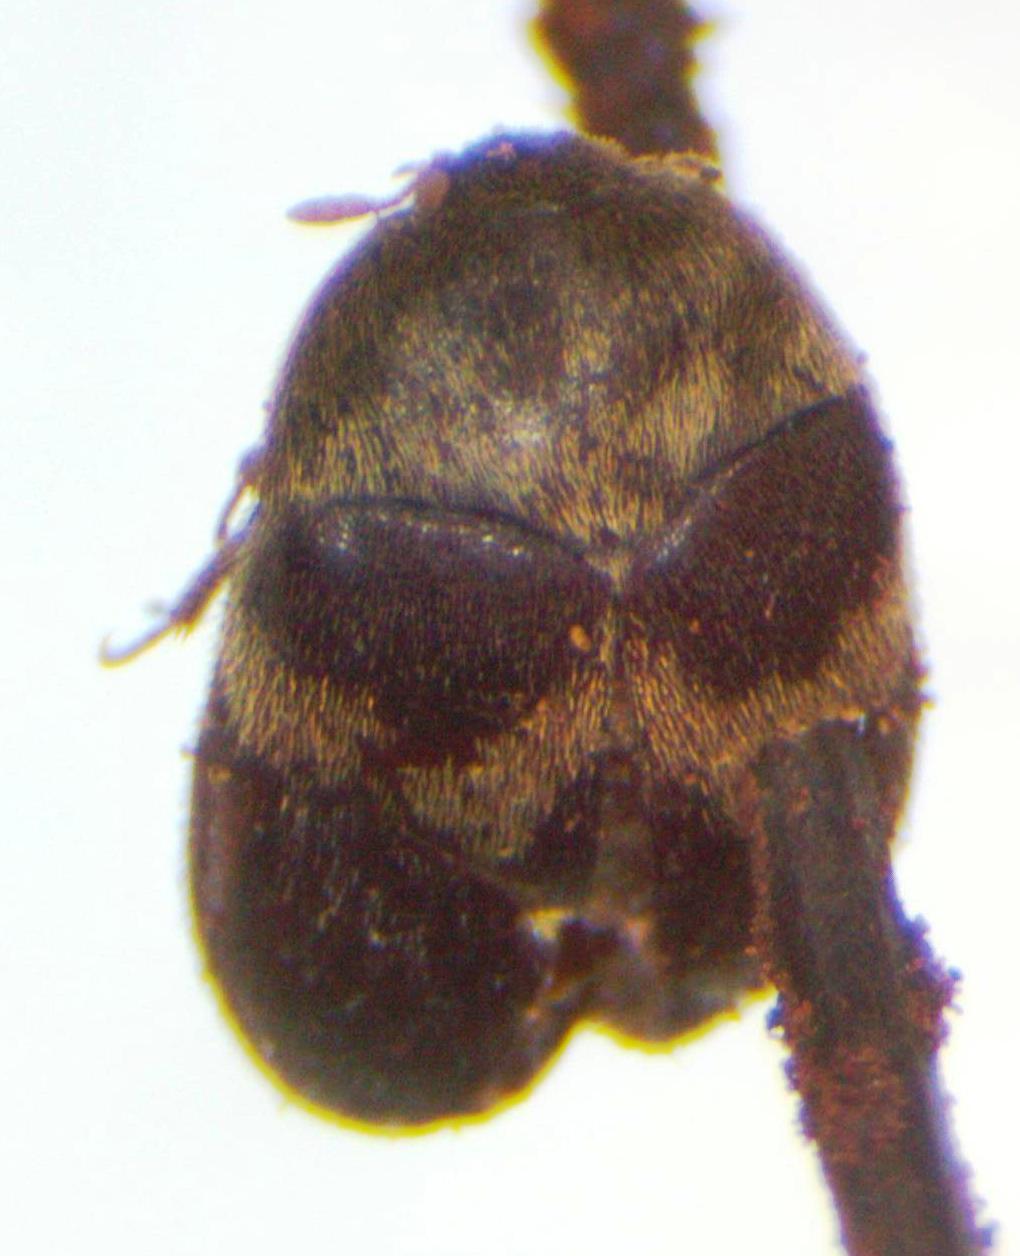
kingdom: Animalia
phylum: Arthropoda
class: Insecta
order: Coleoptera
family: Dermestidae
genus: Attagenus
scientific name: Attagenus fasciatus
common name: Wardrobe beetle
